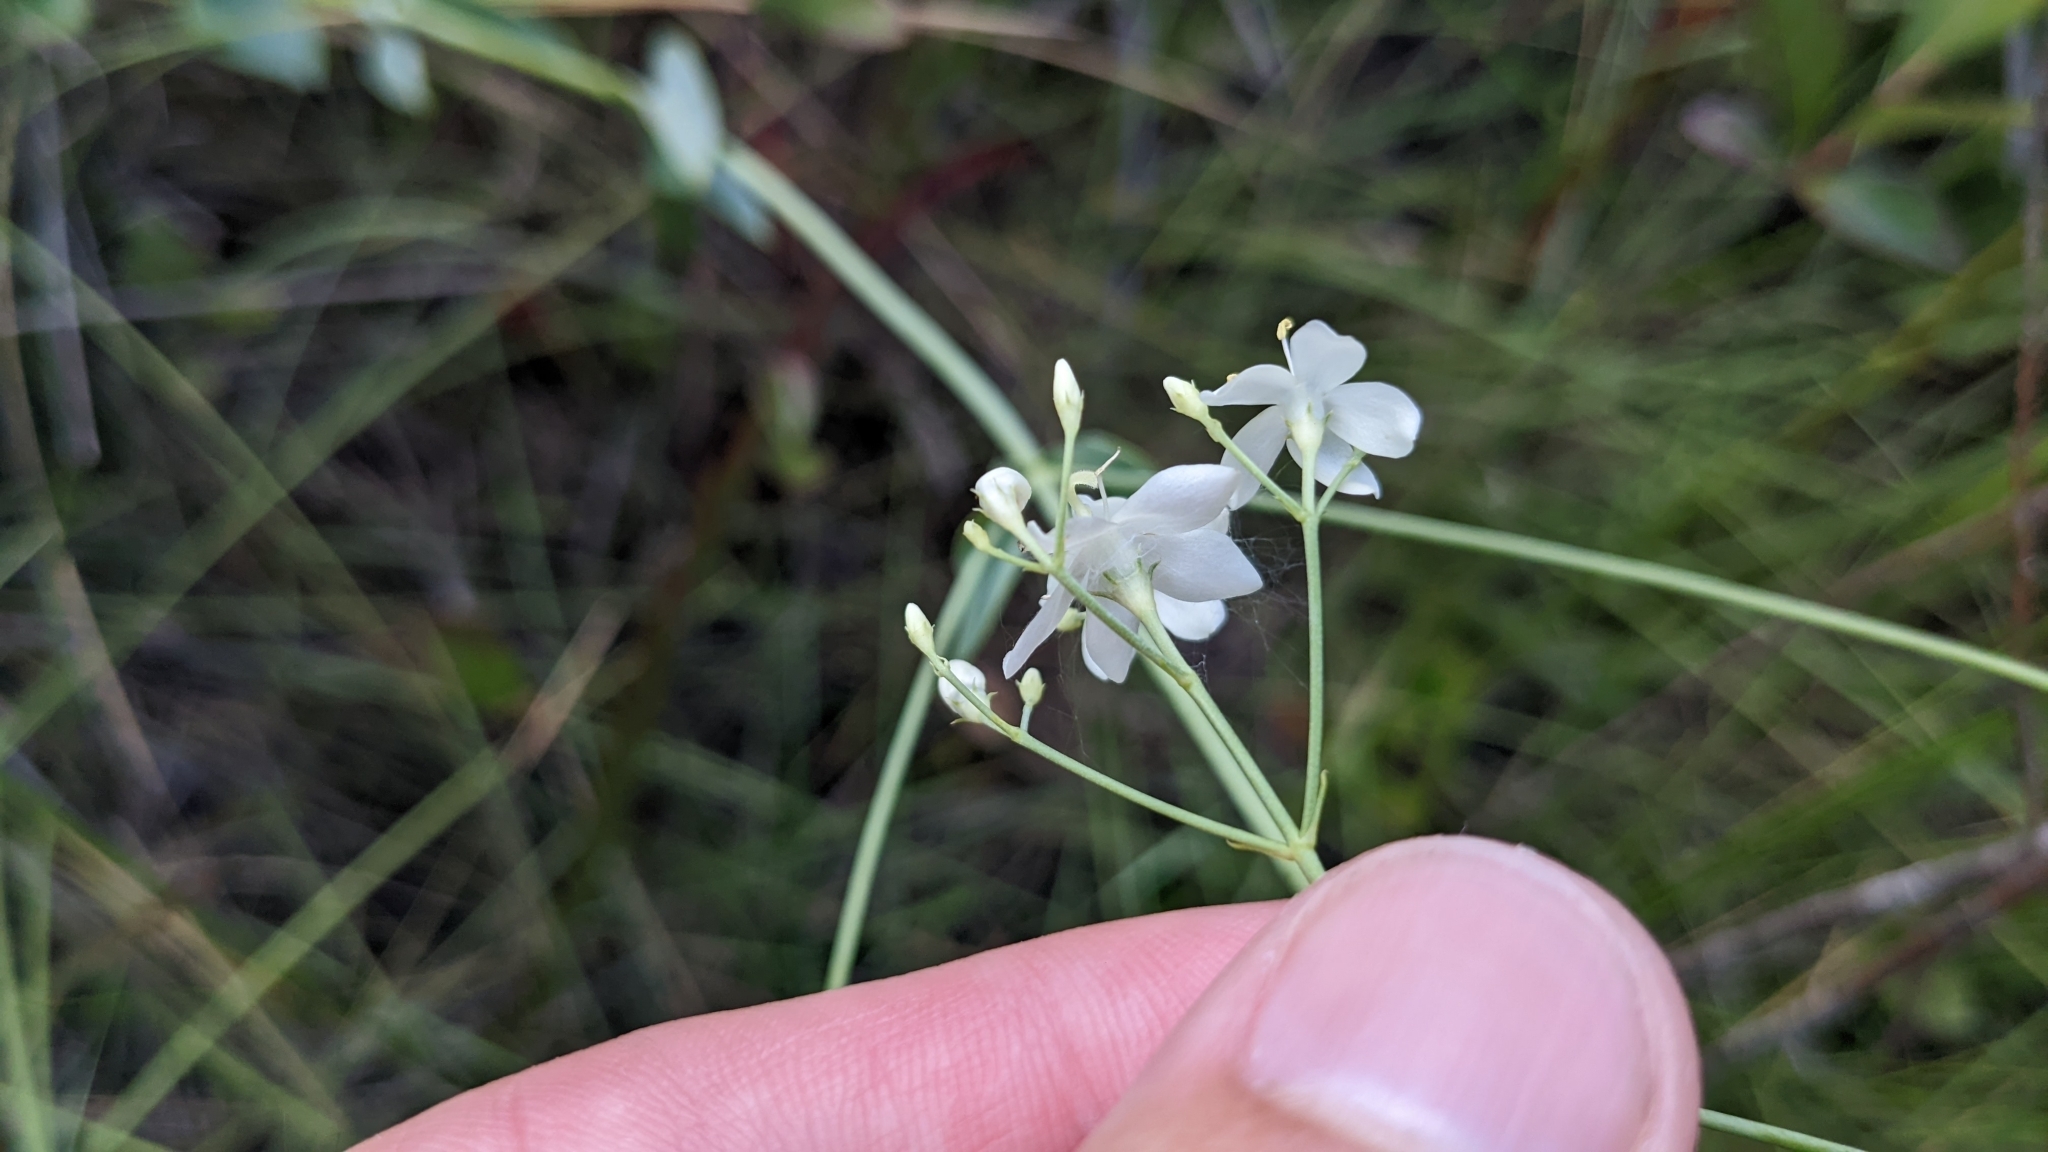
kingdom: Plantae
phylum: Tracheophyta
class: Magnoliopsida
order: Gentianales
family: Gentianaceae
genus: Sabatia
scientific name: Sabatia macrophylla
